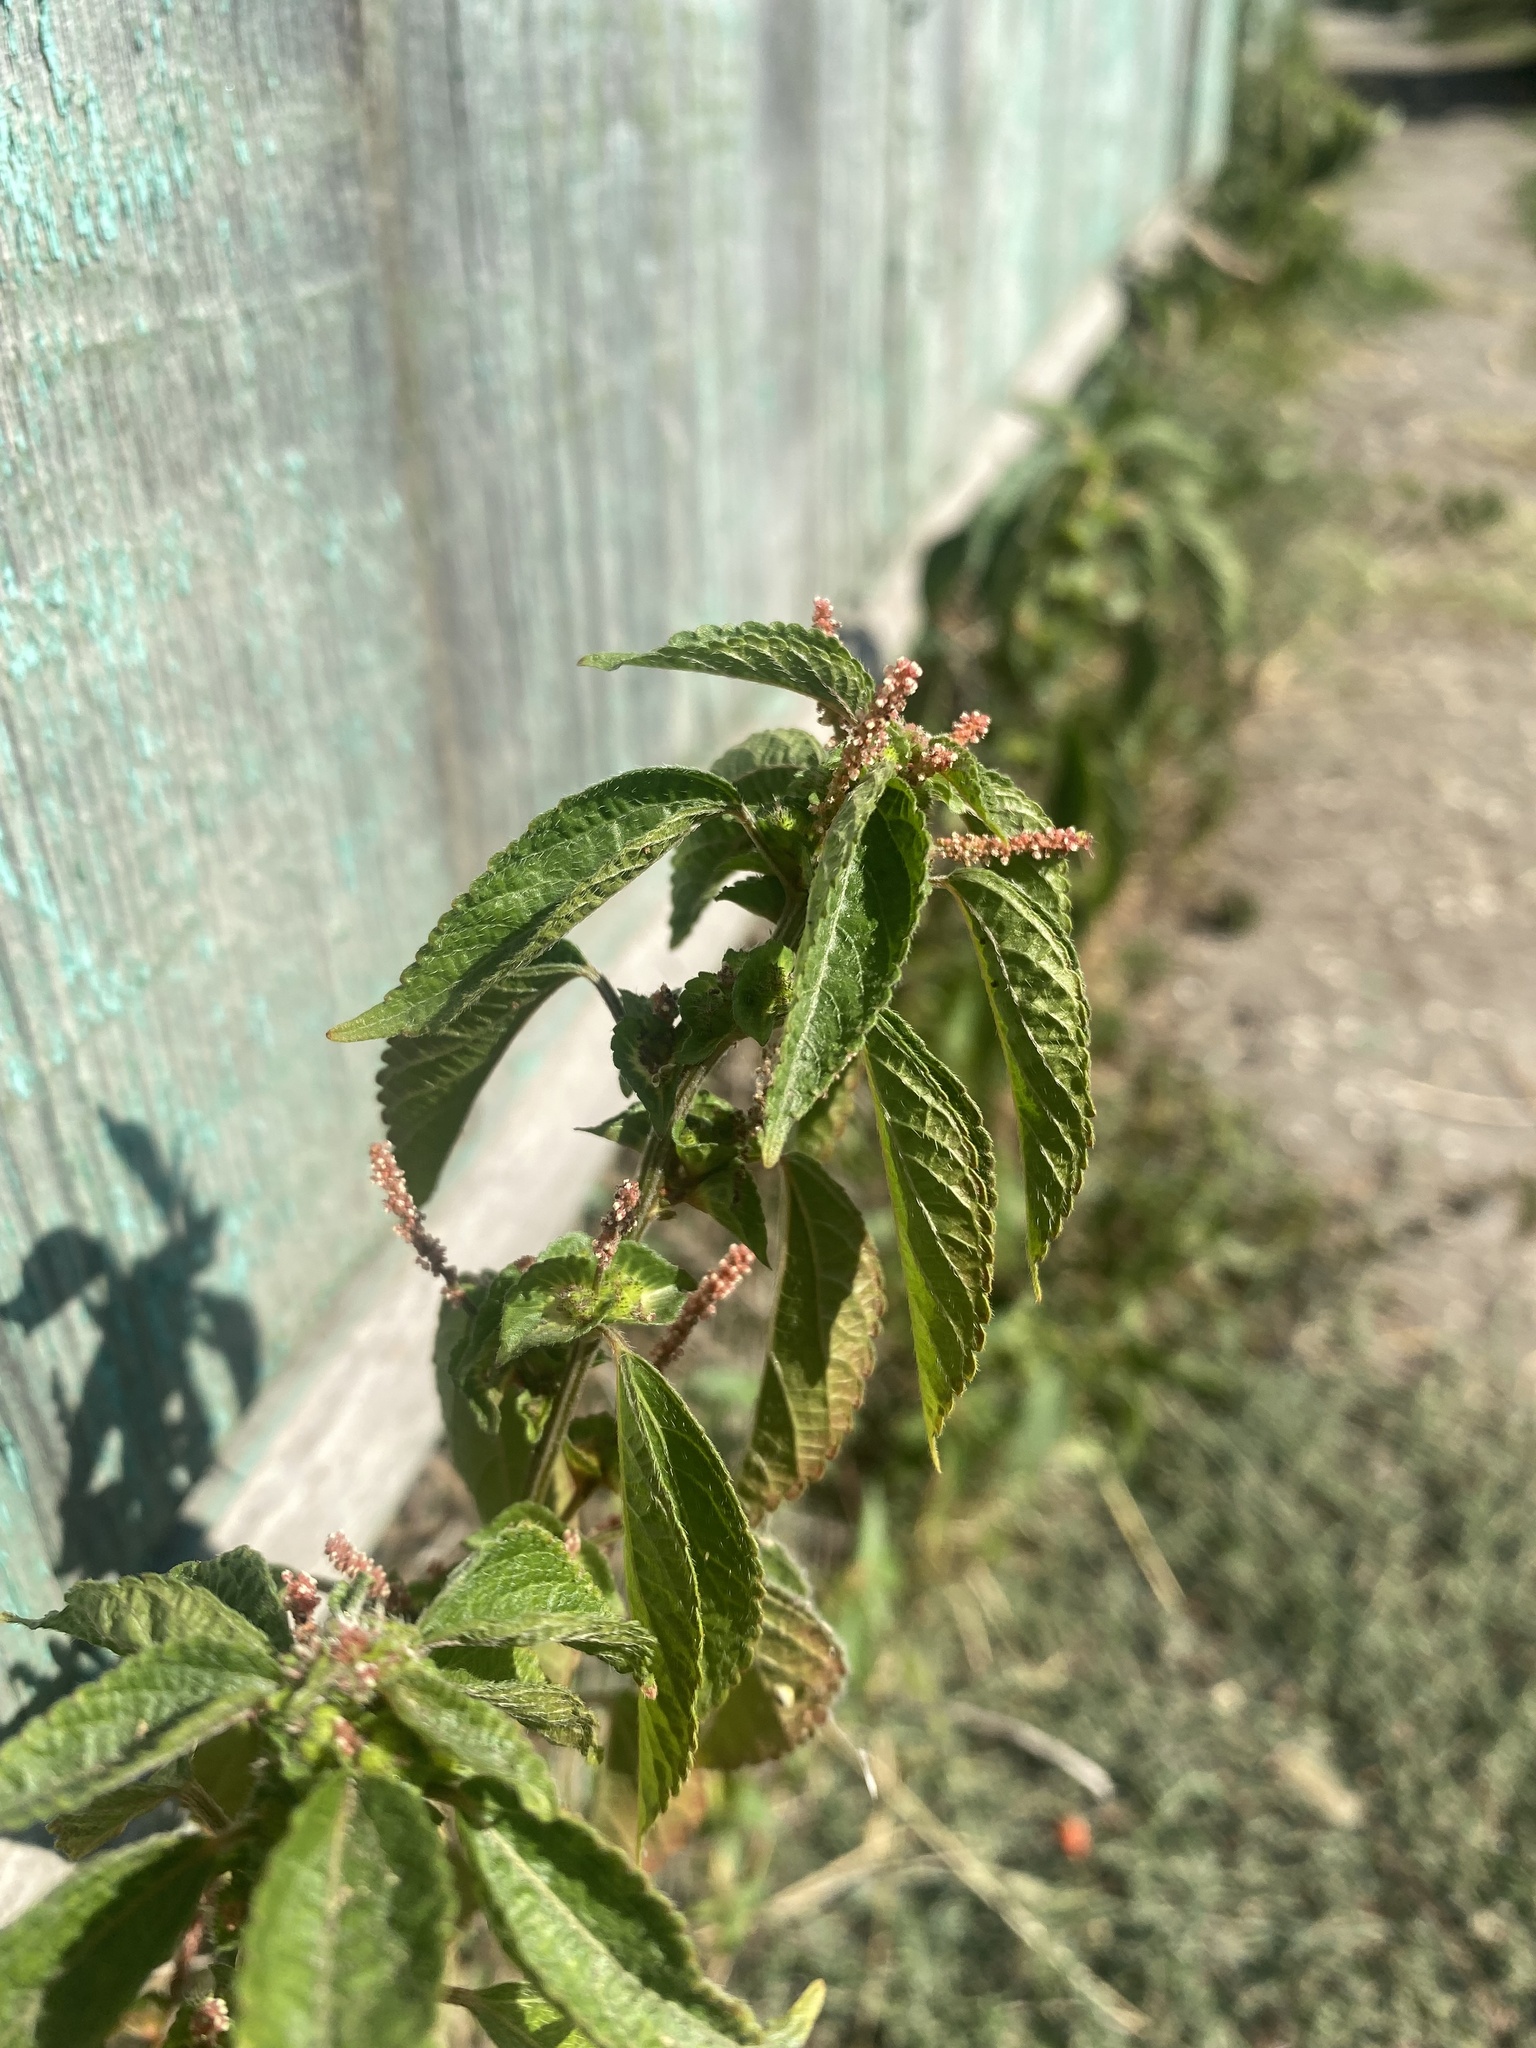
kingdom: Plantae
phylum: Tracheophyta
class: Magnoliopsida
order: Malpighiales
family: Euphorbiaceae
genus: Acalypha
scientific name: Acalypha australis
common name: Asian copperleaf
